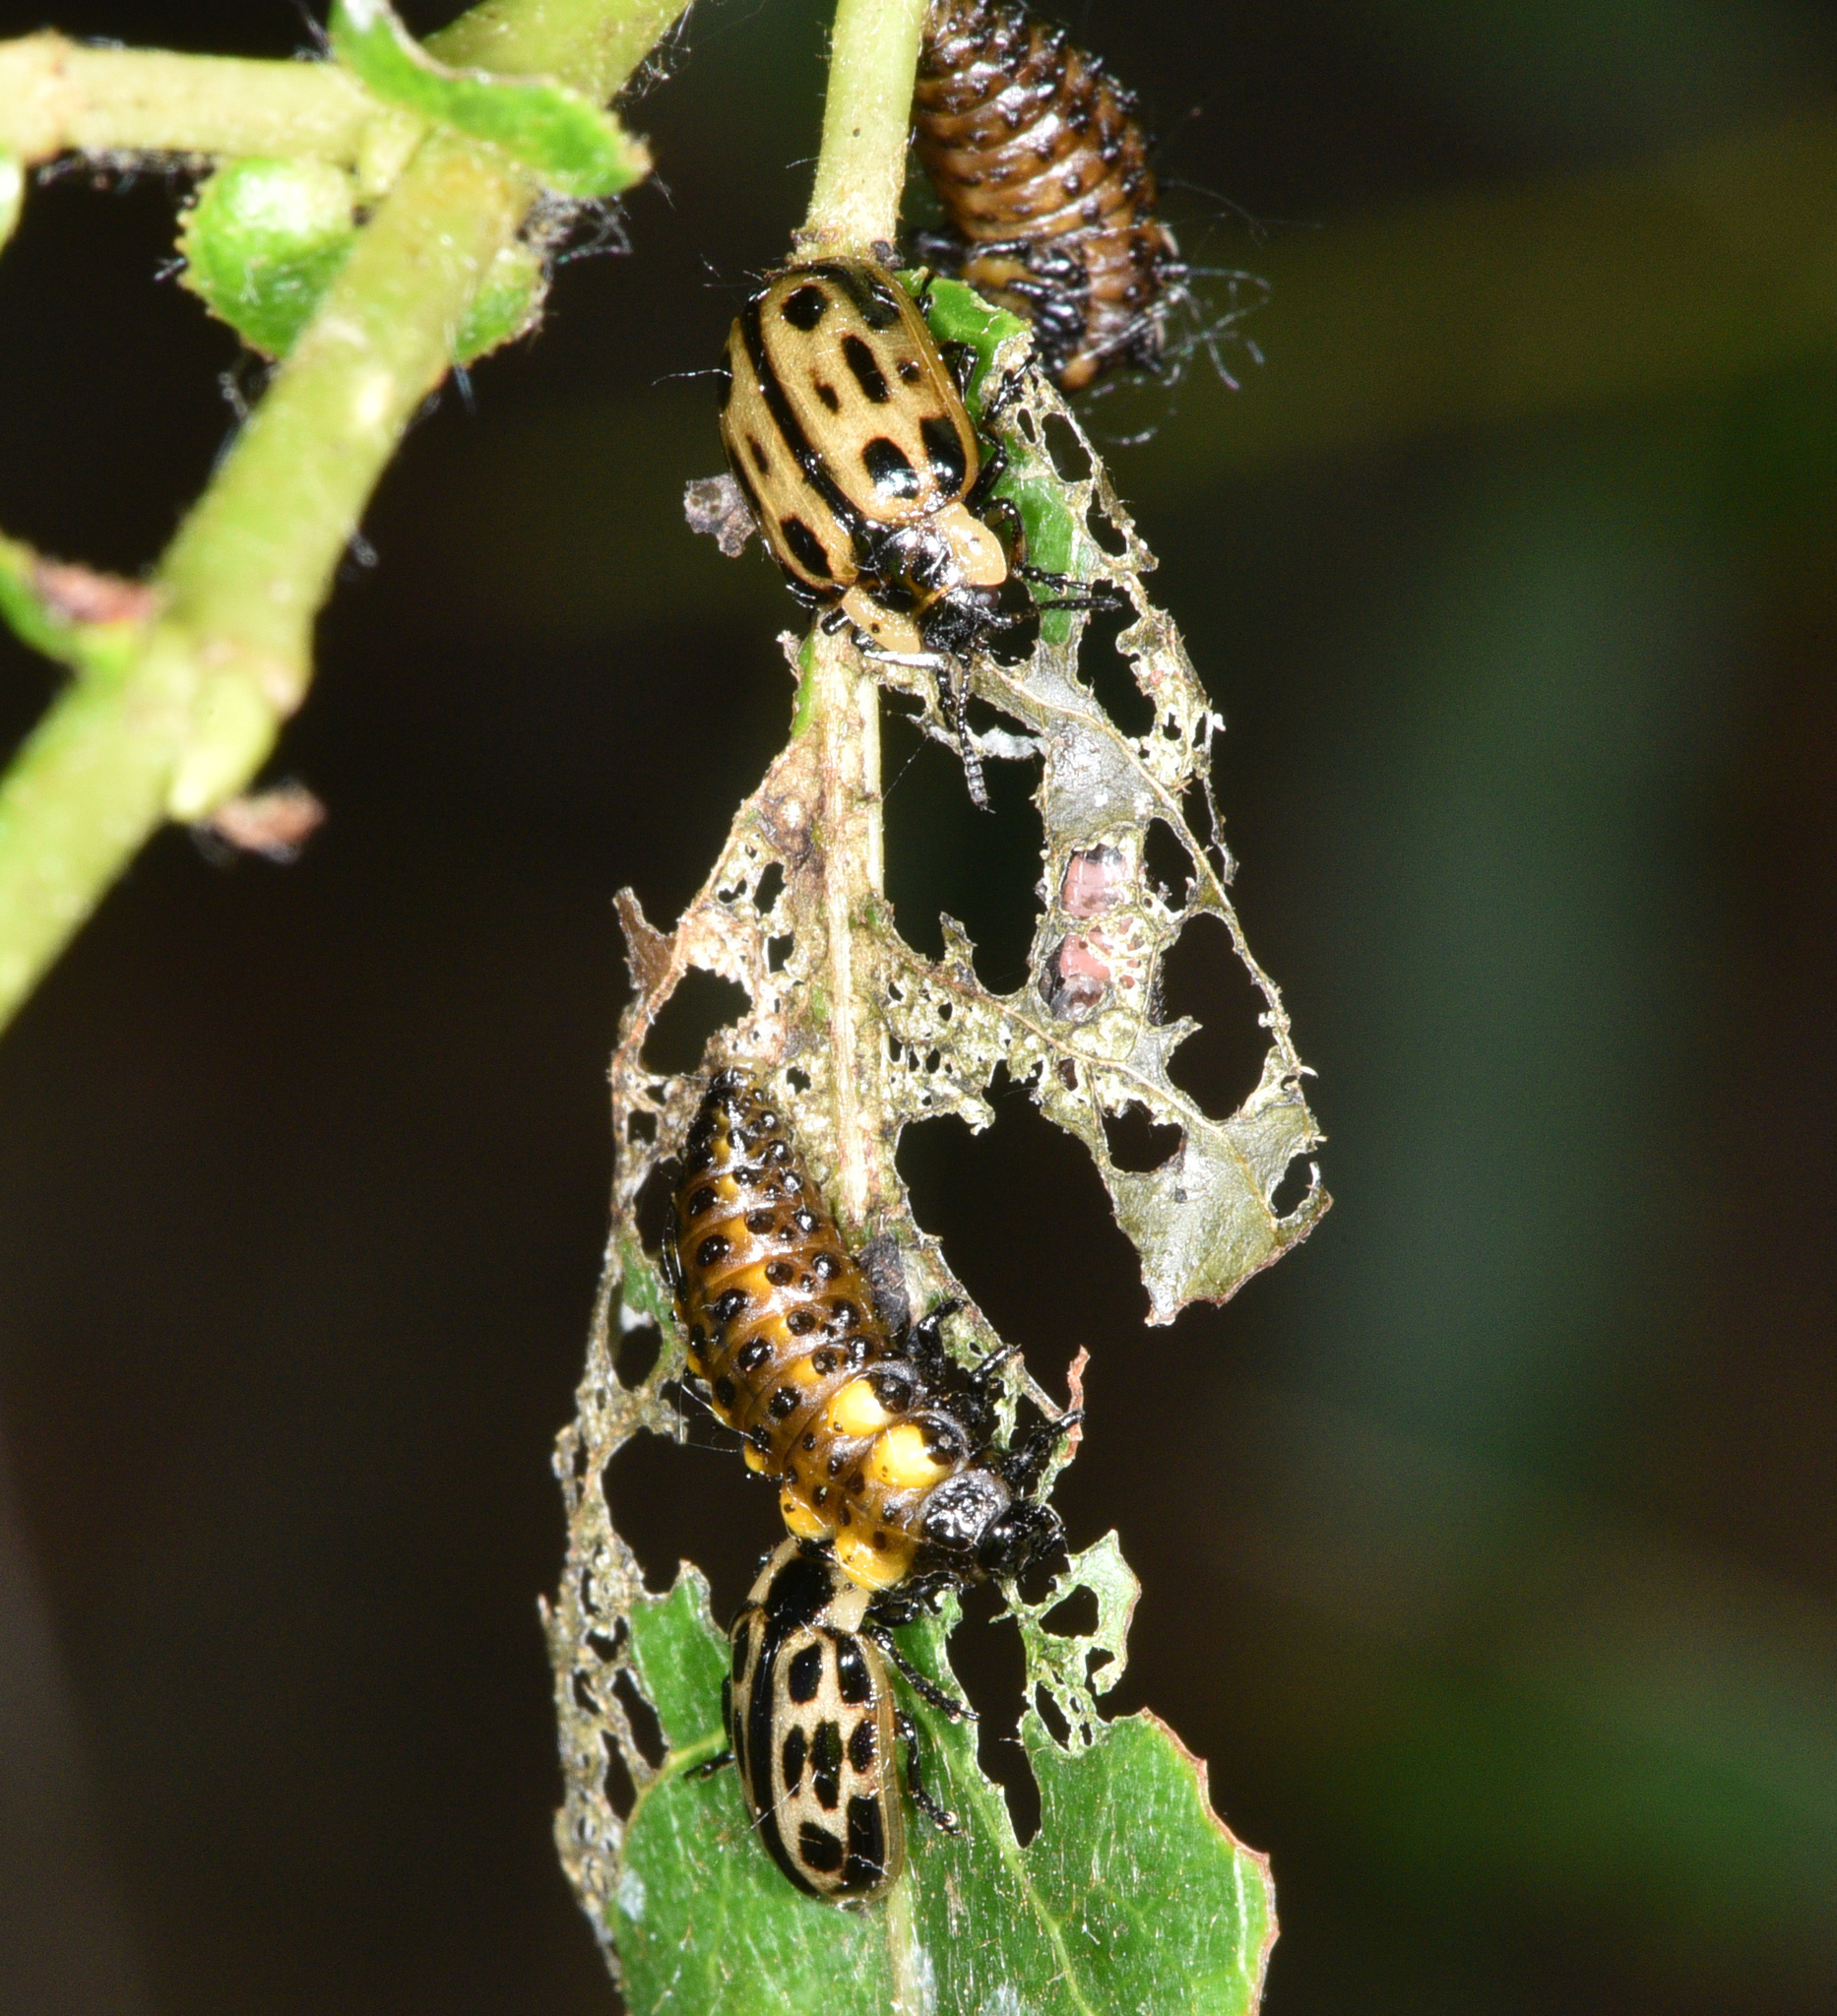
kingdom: Animalia
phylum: Arthropoda
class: Insecta
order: Coleoptera
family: Chrysomelidae
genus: Chrysomela
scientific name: Chrysomela confluens
